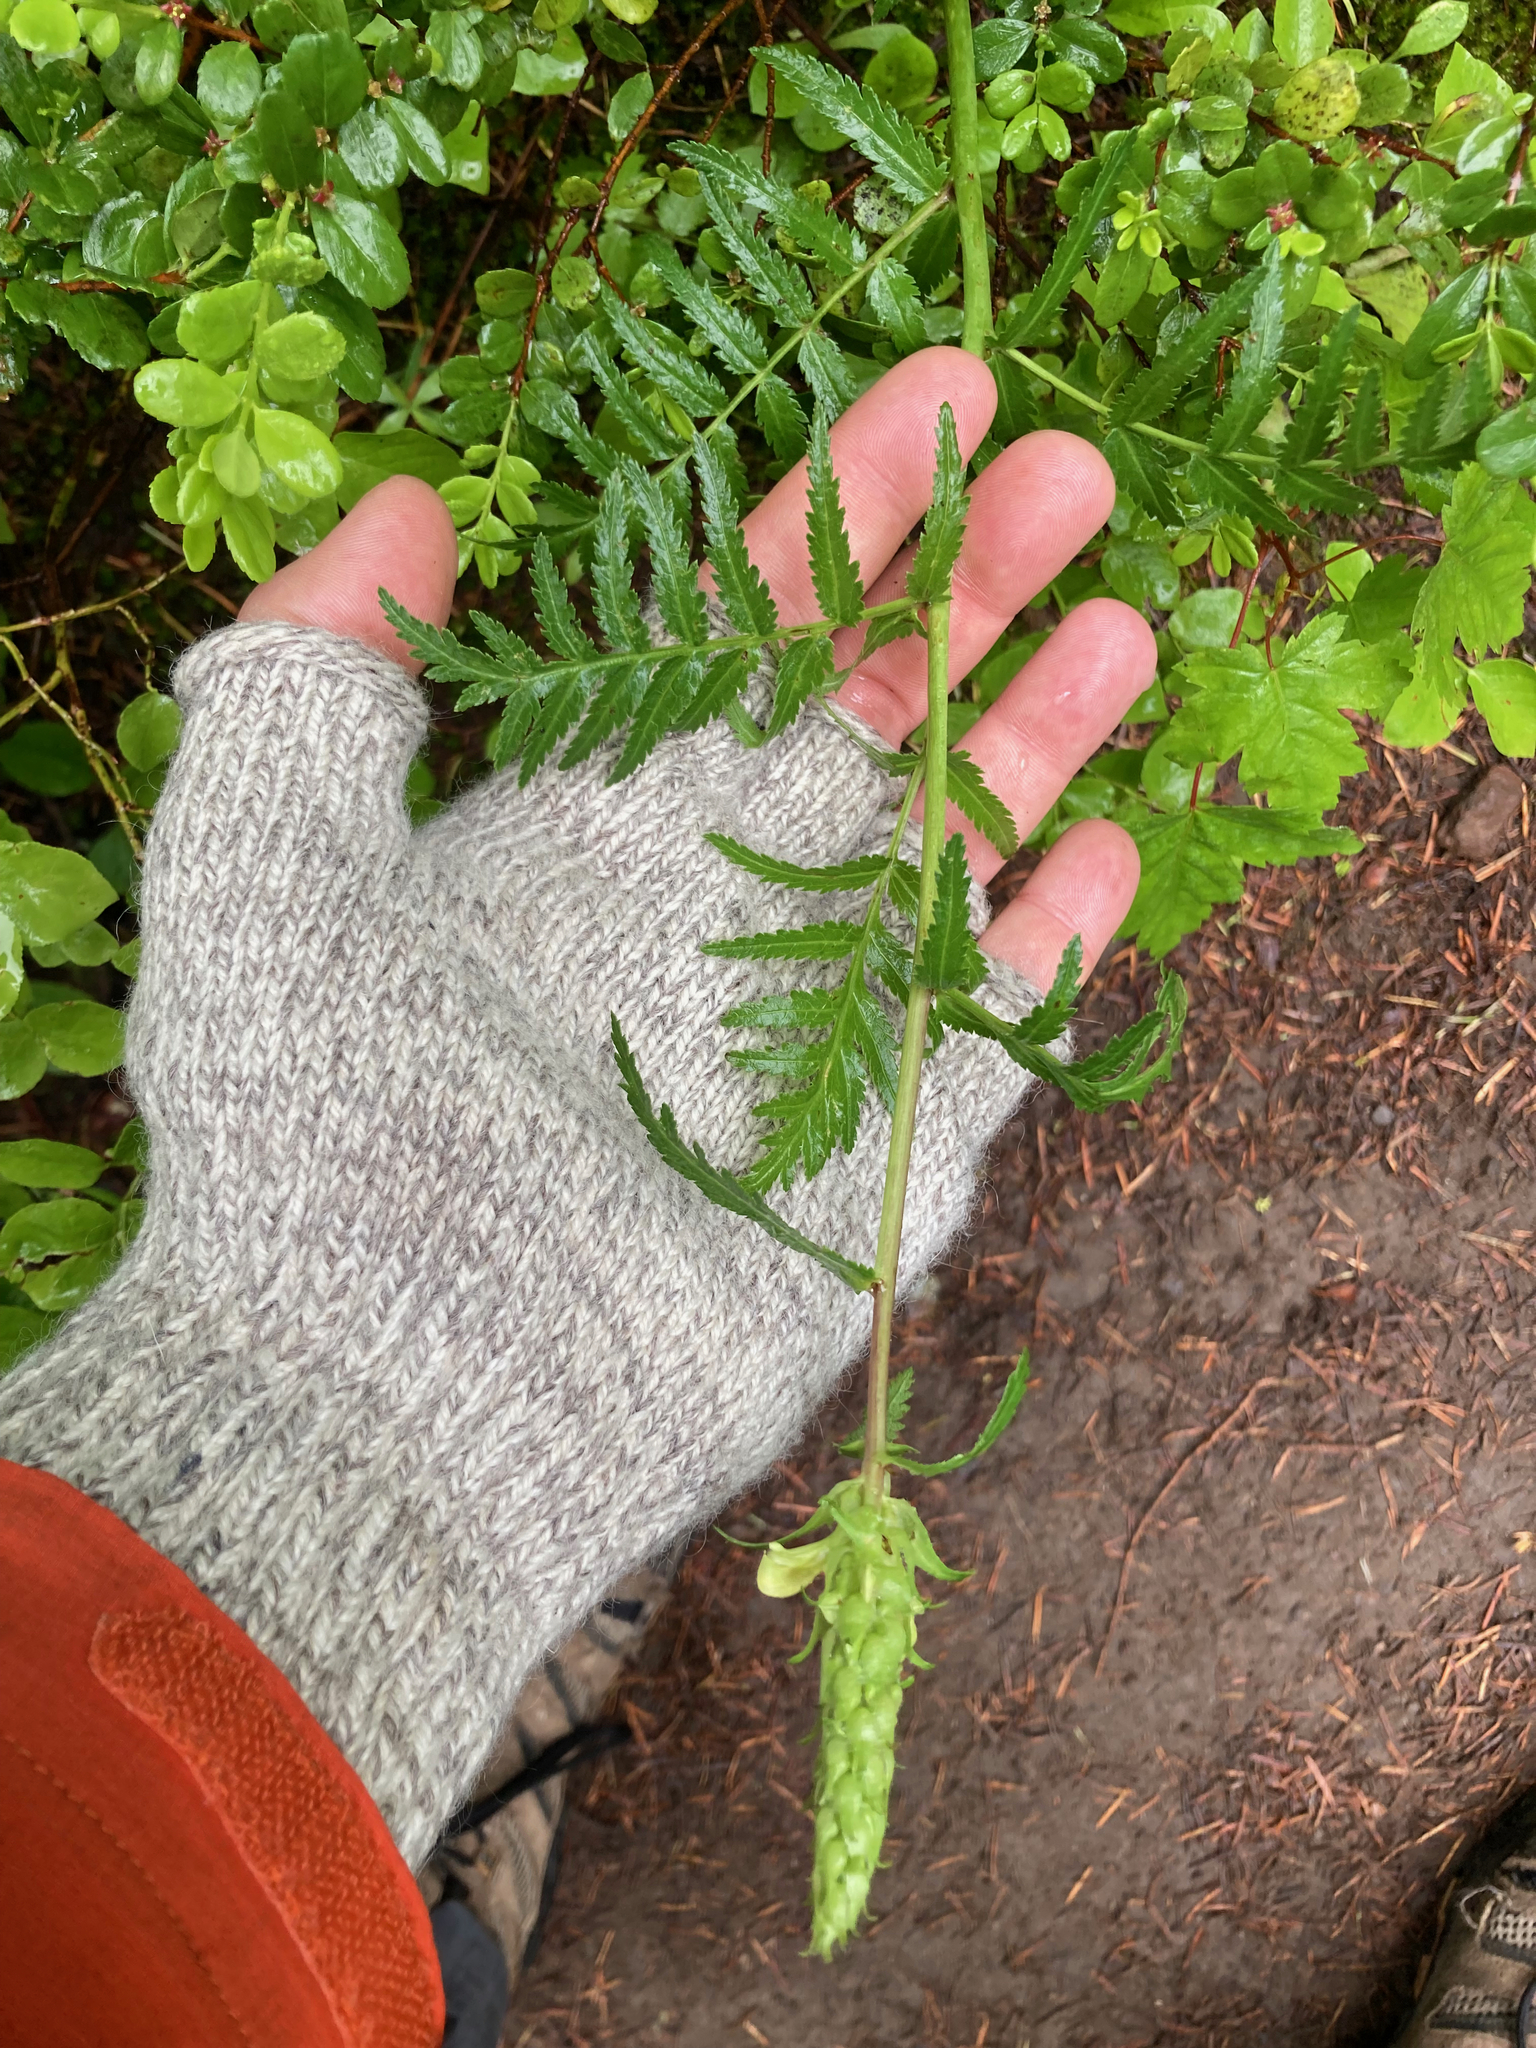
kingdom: Plantae
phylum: Tracheophyta
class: Magnoliopsida
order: Lamiales
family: Orobanchaceae
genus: Pedicularis
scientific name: Pedicularis bracteosa
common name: Bracted lousewort
